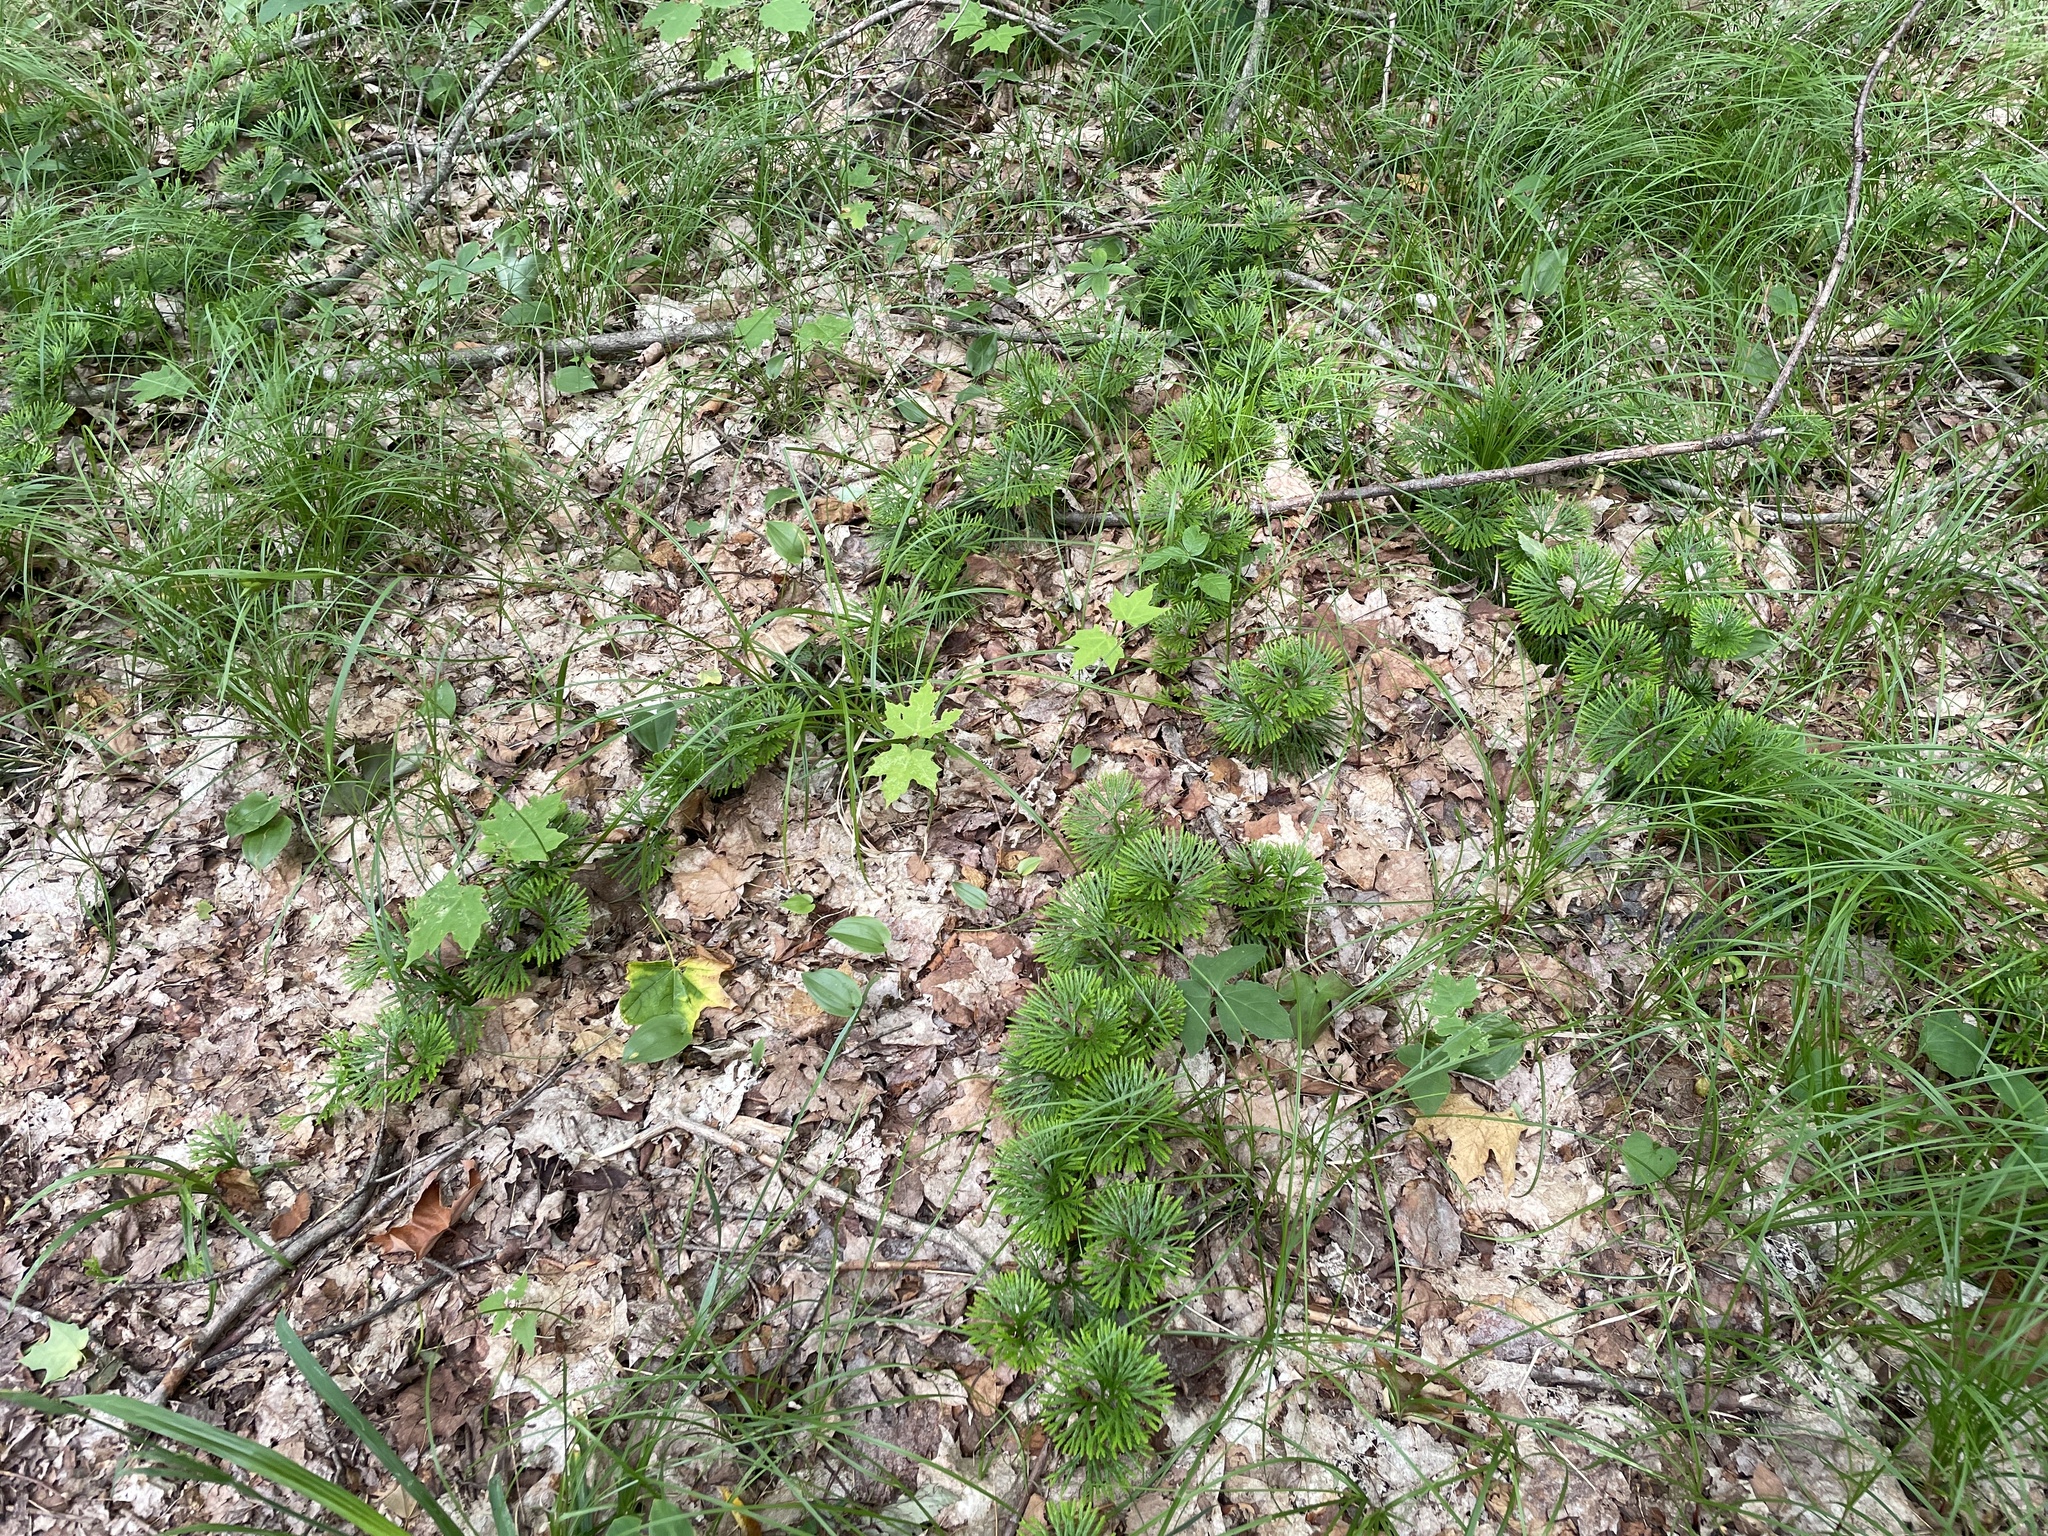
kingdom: Plantae
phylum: Tracheophyta
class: Lycopodiopsida
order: Lycopodiales
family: Lycopodiaceae
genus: Diphasiastrum
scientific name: Diphasiastrum digitatum
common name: Southern running-pine
